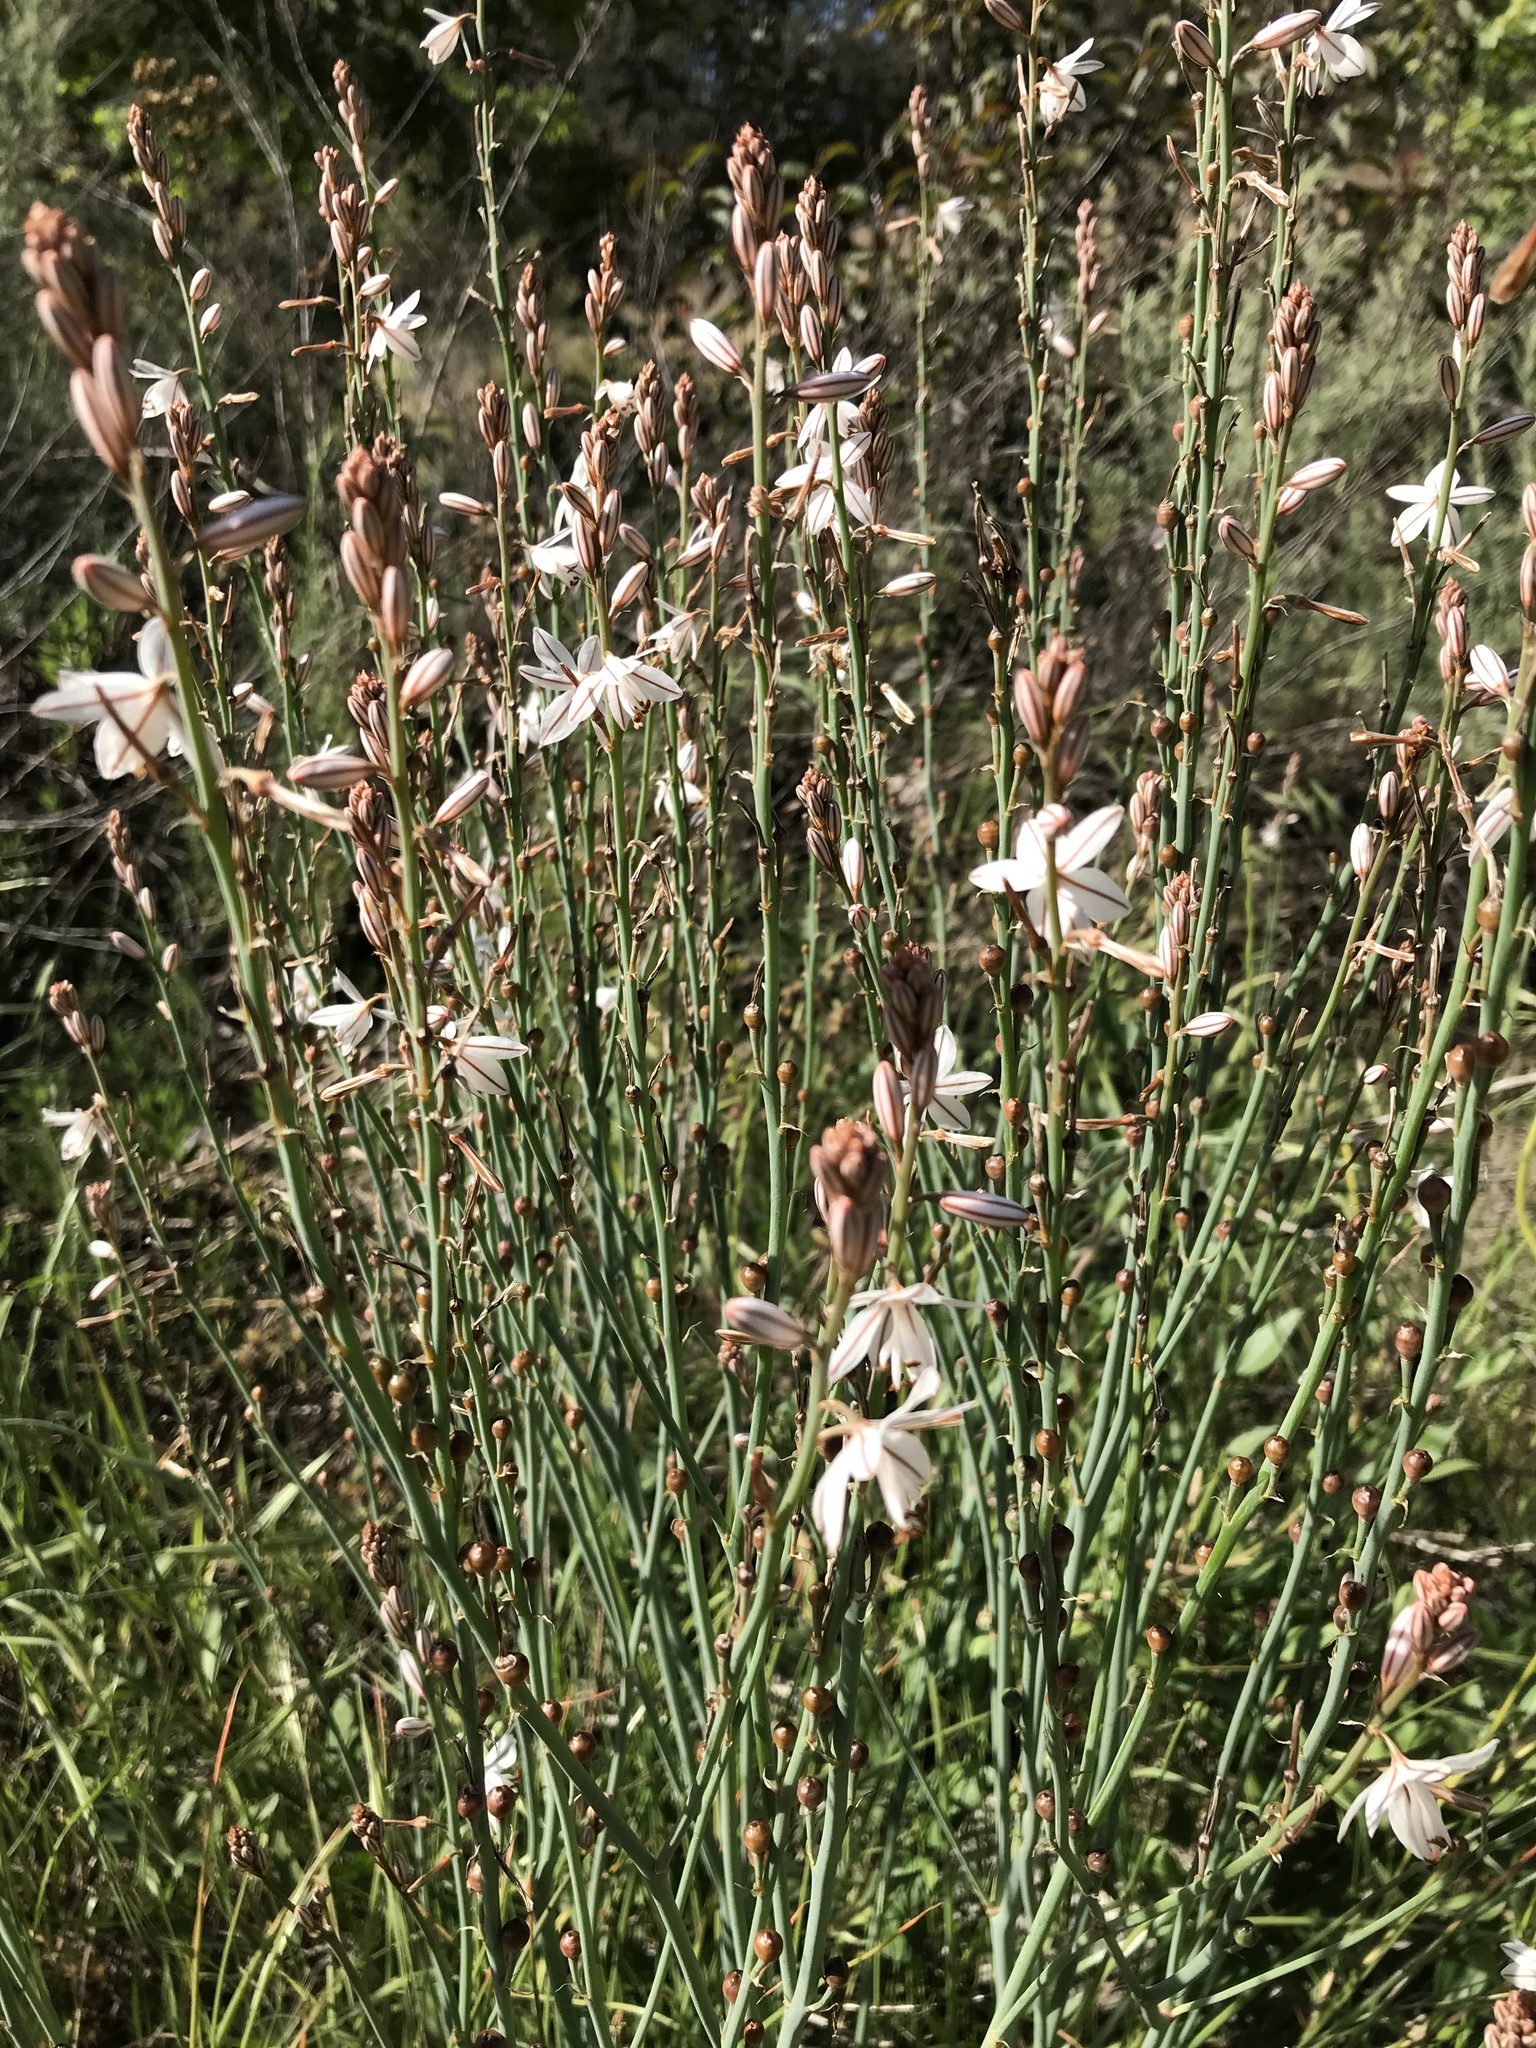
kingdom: Plantae
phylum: Tracheophyta
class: Liliopsida
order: Asparagales
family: Asphodelaceae
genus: Asphodelus
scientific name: Asphodelus fistulosus
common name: Onionweed
